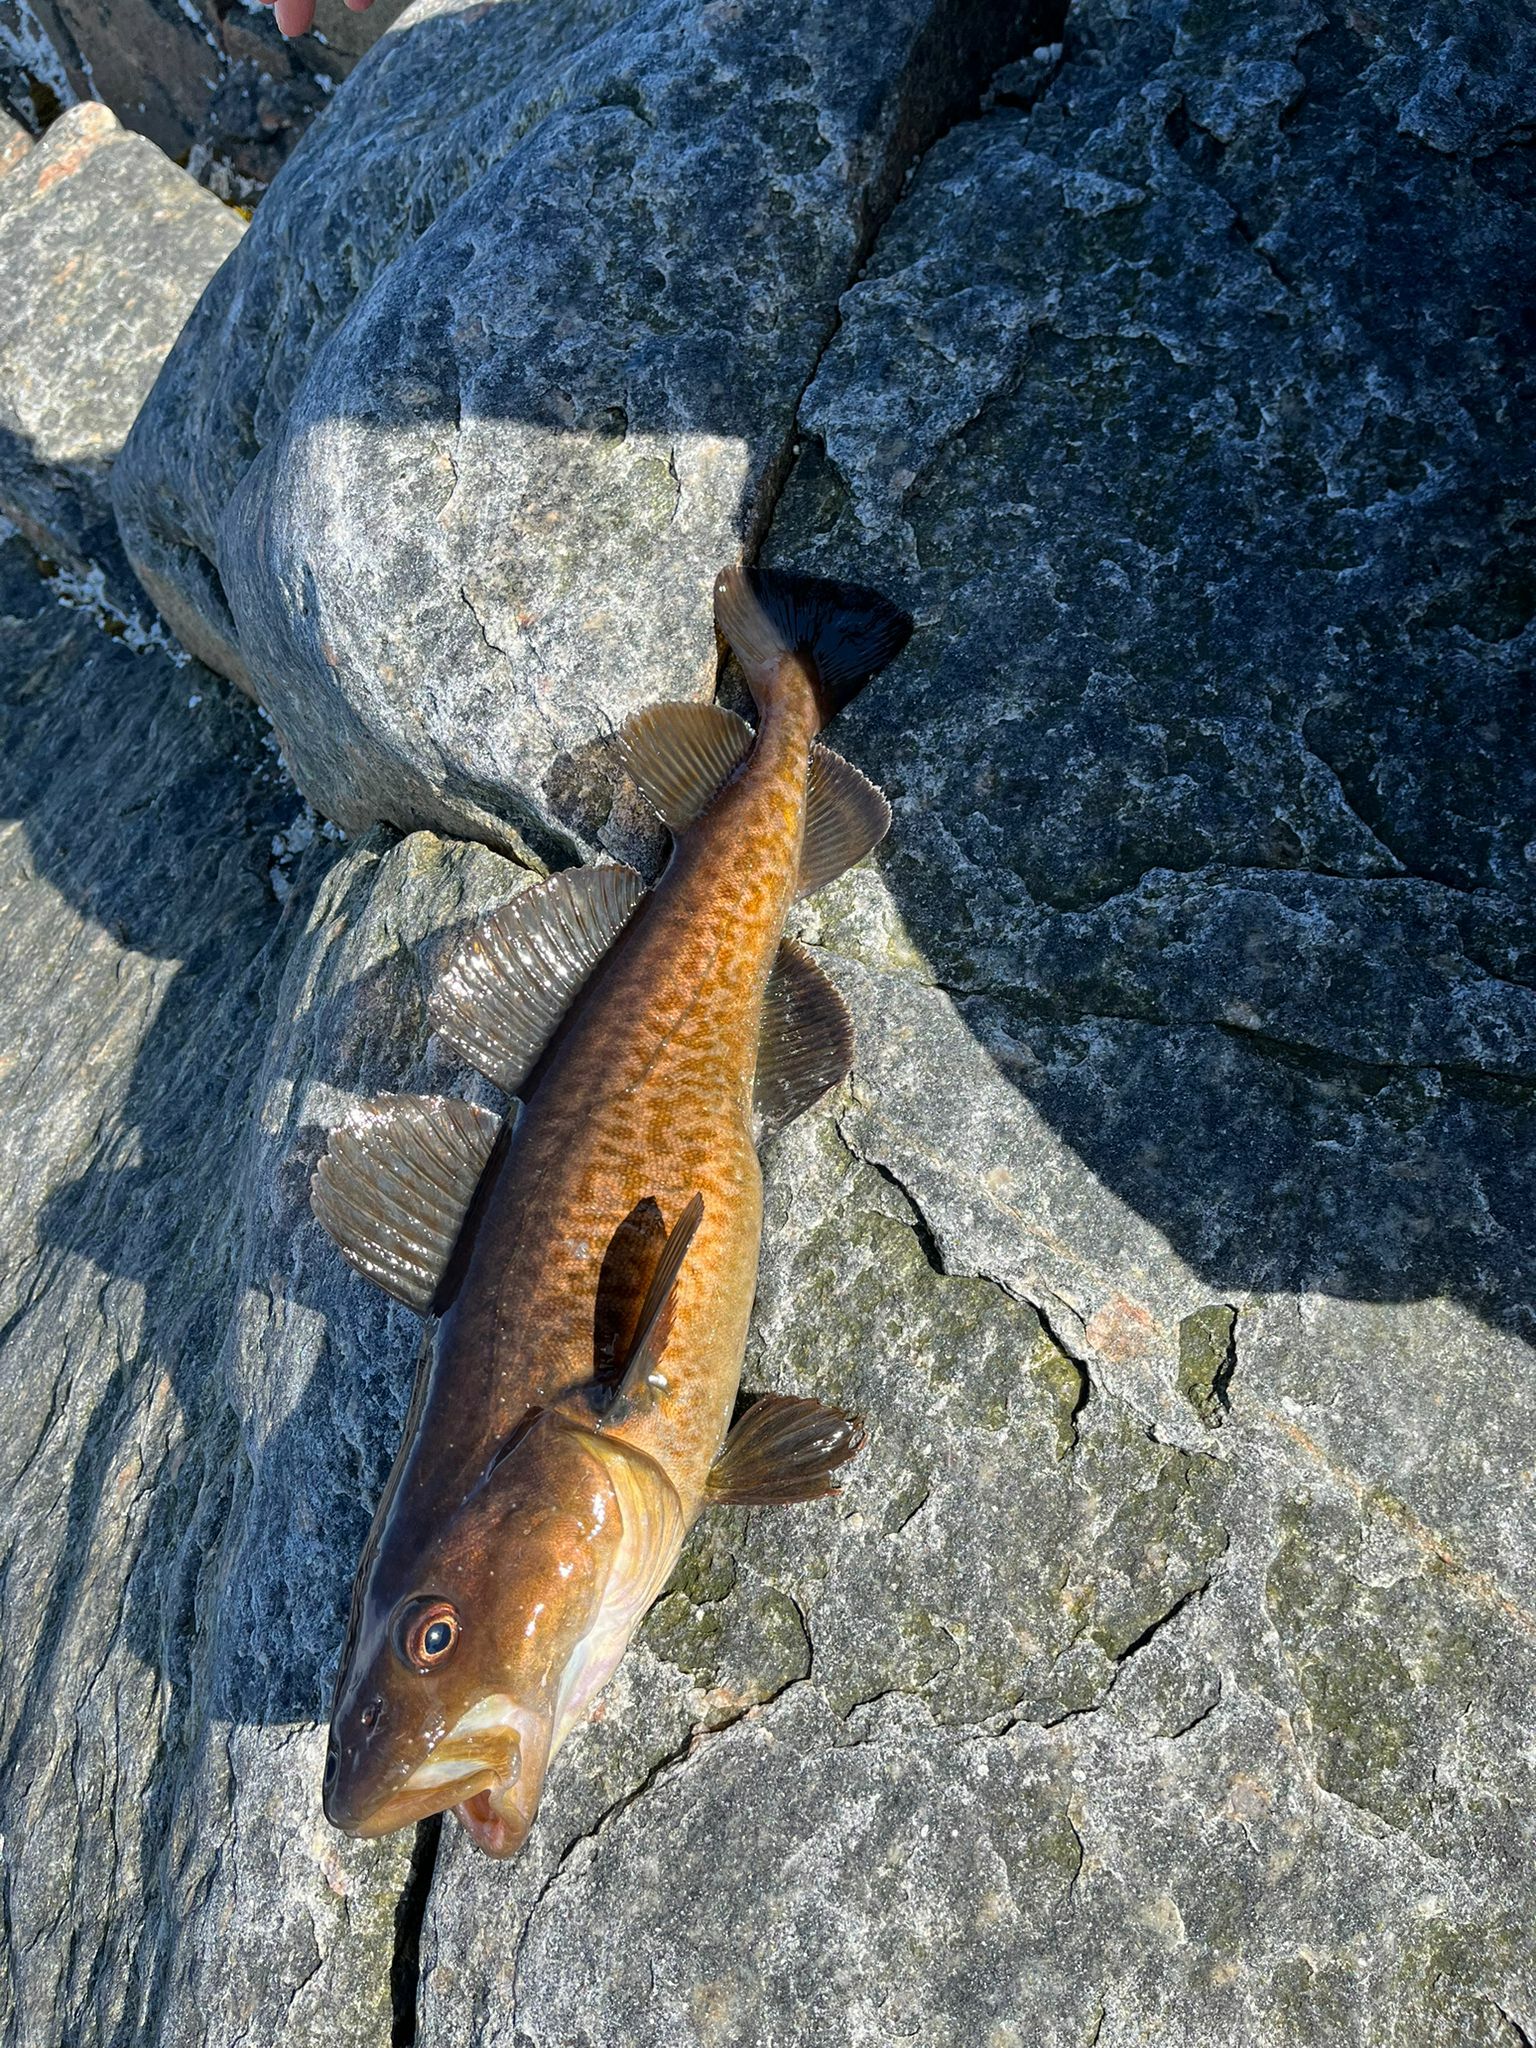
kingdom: Animalia
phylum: Chordata
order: Gadiformes
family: Gadidae
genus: Gadus
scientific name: Gadus macrocephalus
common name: Pacific cod
